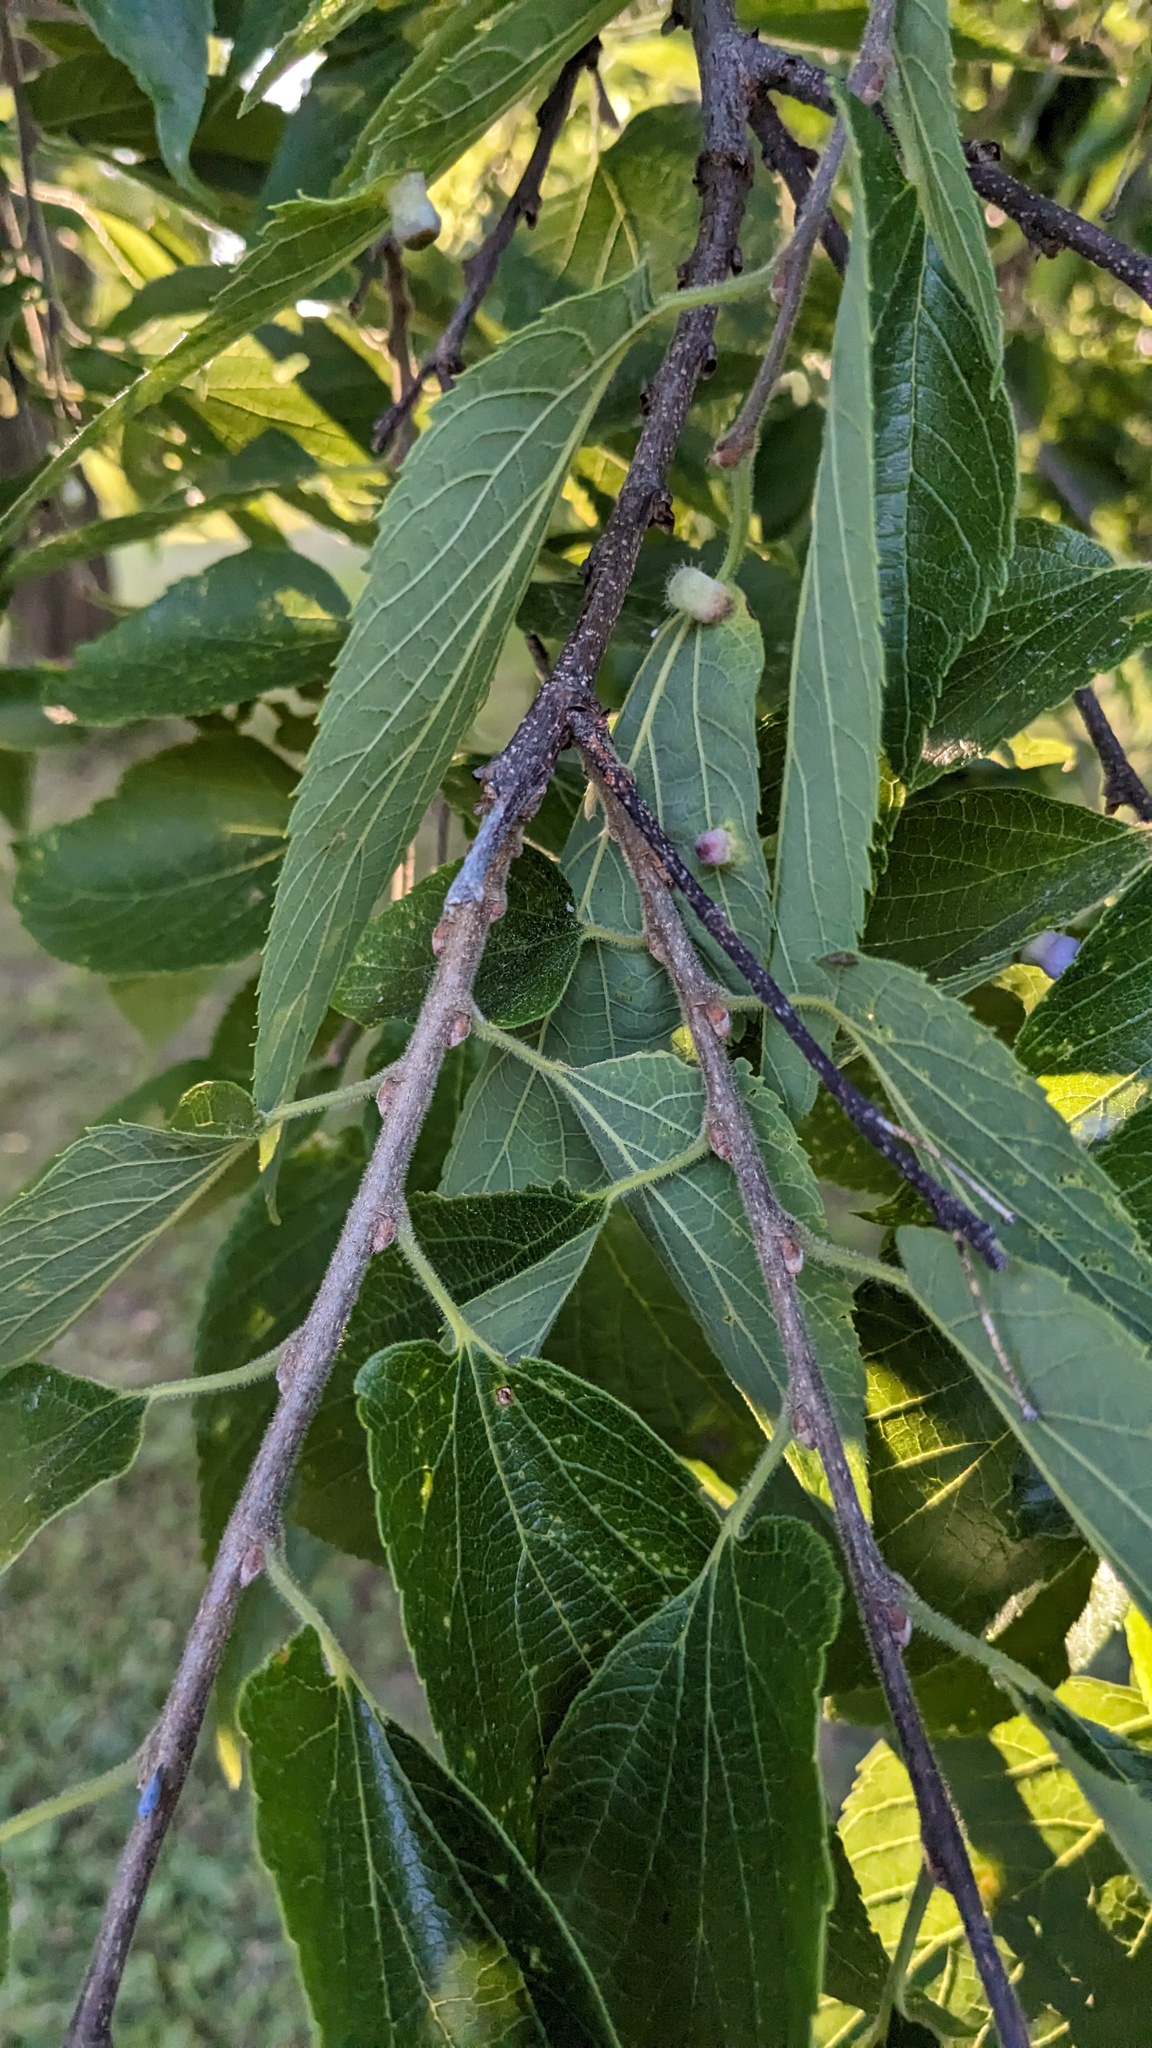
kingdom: Animalia
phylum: Arthropoda
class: Insecta
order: Hemiptera
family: Aphalaridae
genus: Pachypsylla
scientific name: Pachypsylla celtidismamma
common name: Hackberry nipplegall psyllid
